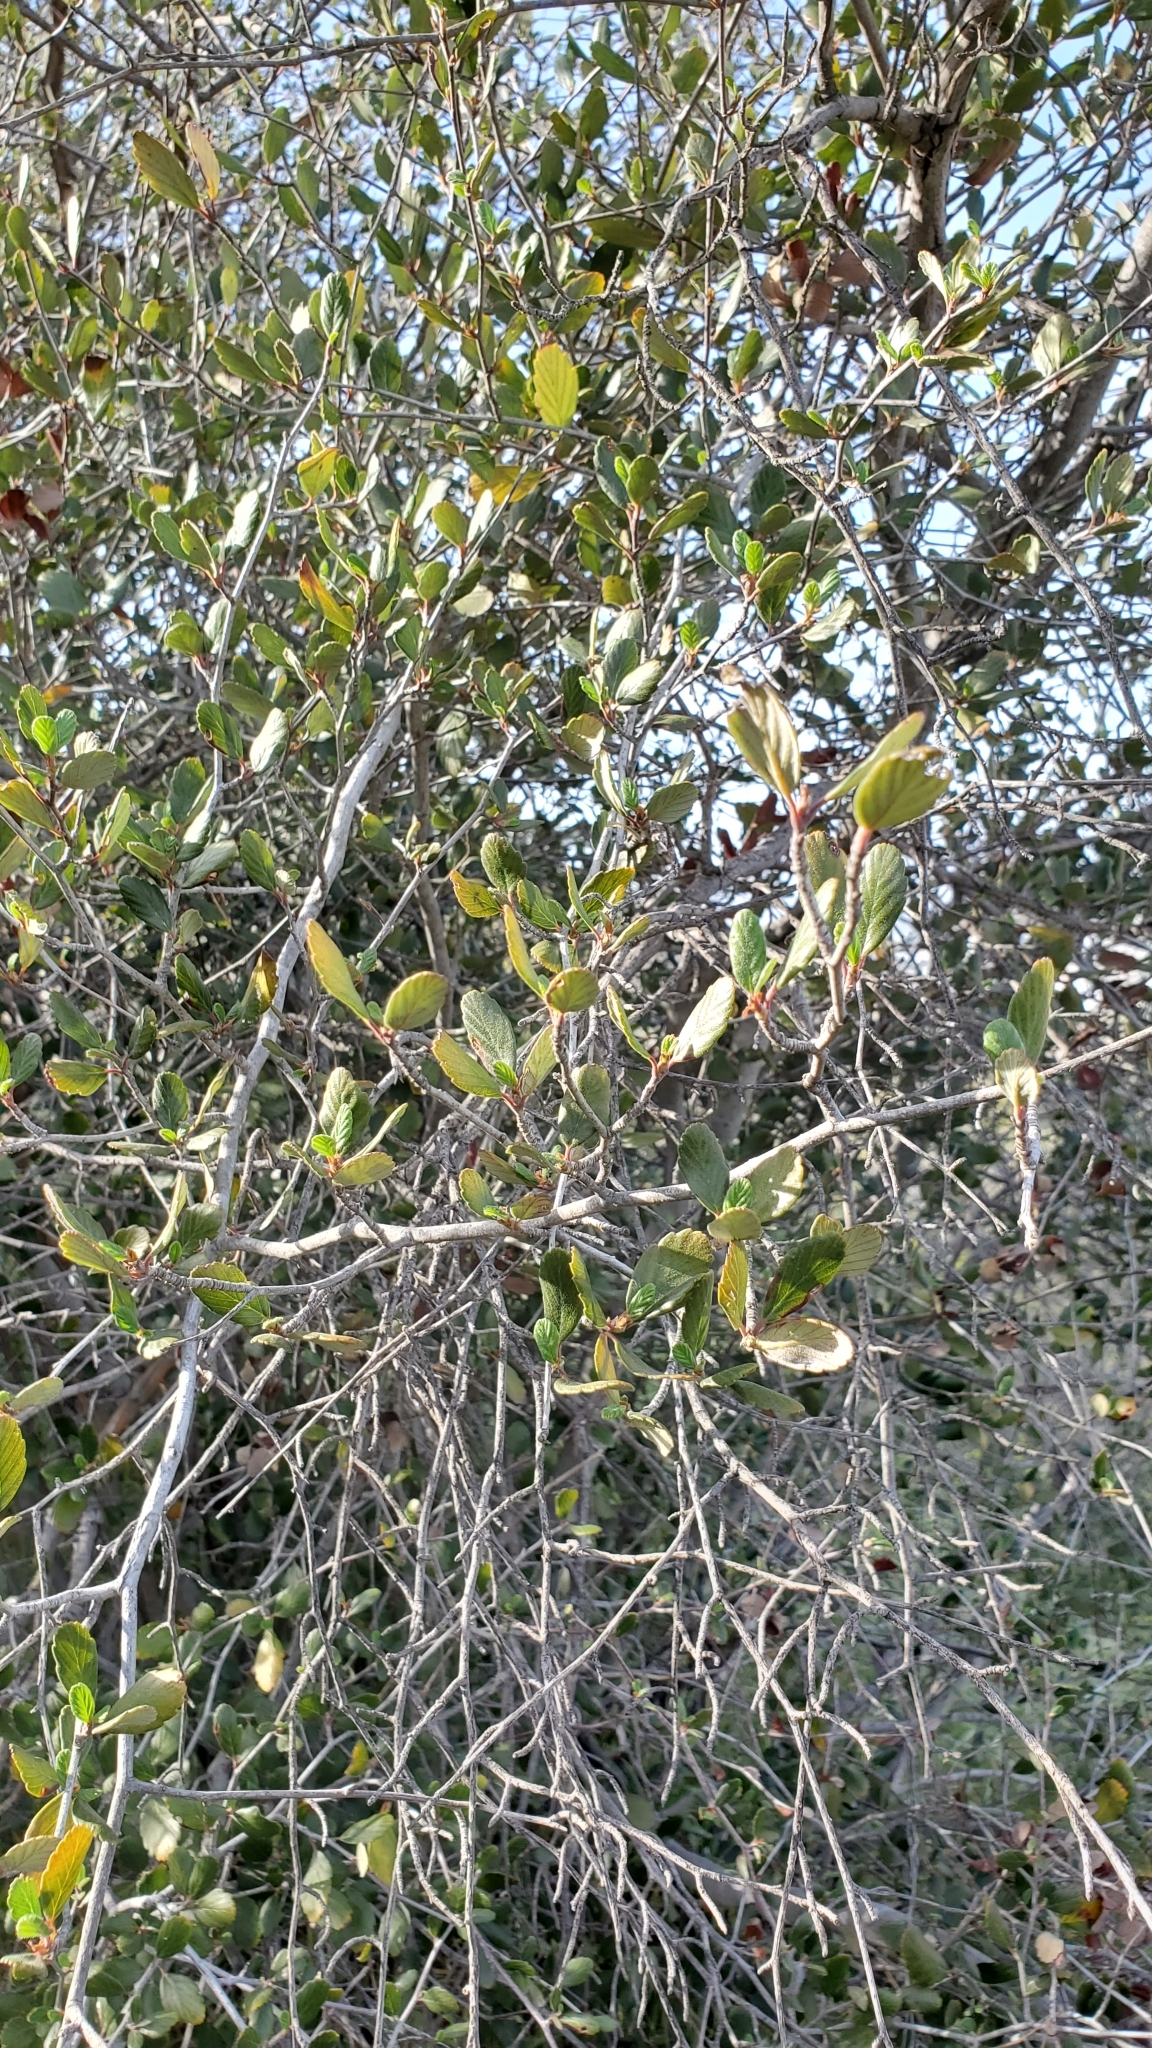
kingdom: Plantae
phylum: Tracheophyta
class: Magnoliopsida
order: Rosales
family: Rosaceae
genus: Cercocarpus
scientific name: Cercocarpus betuloides
